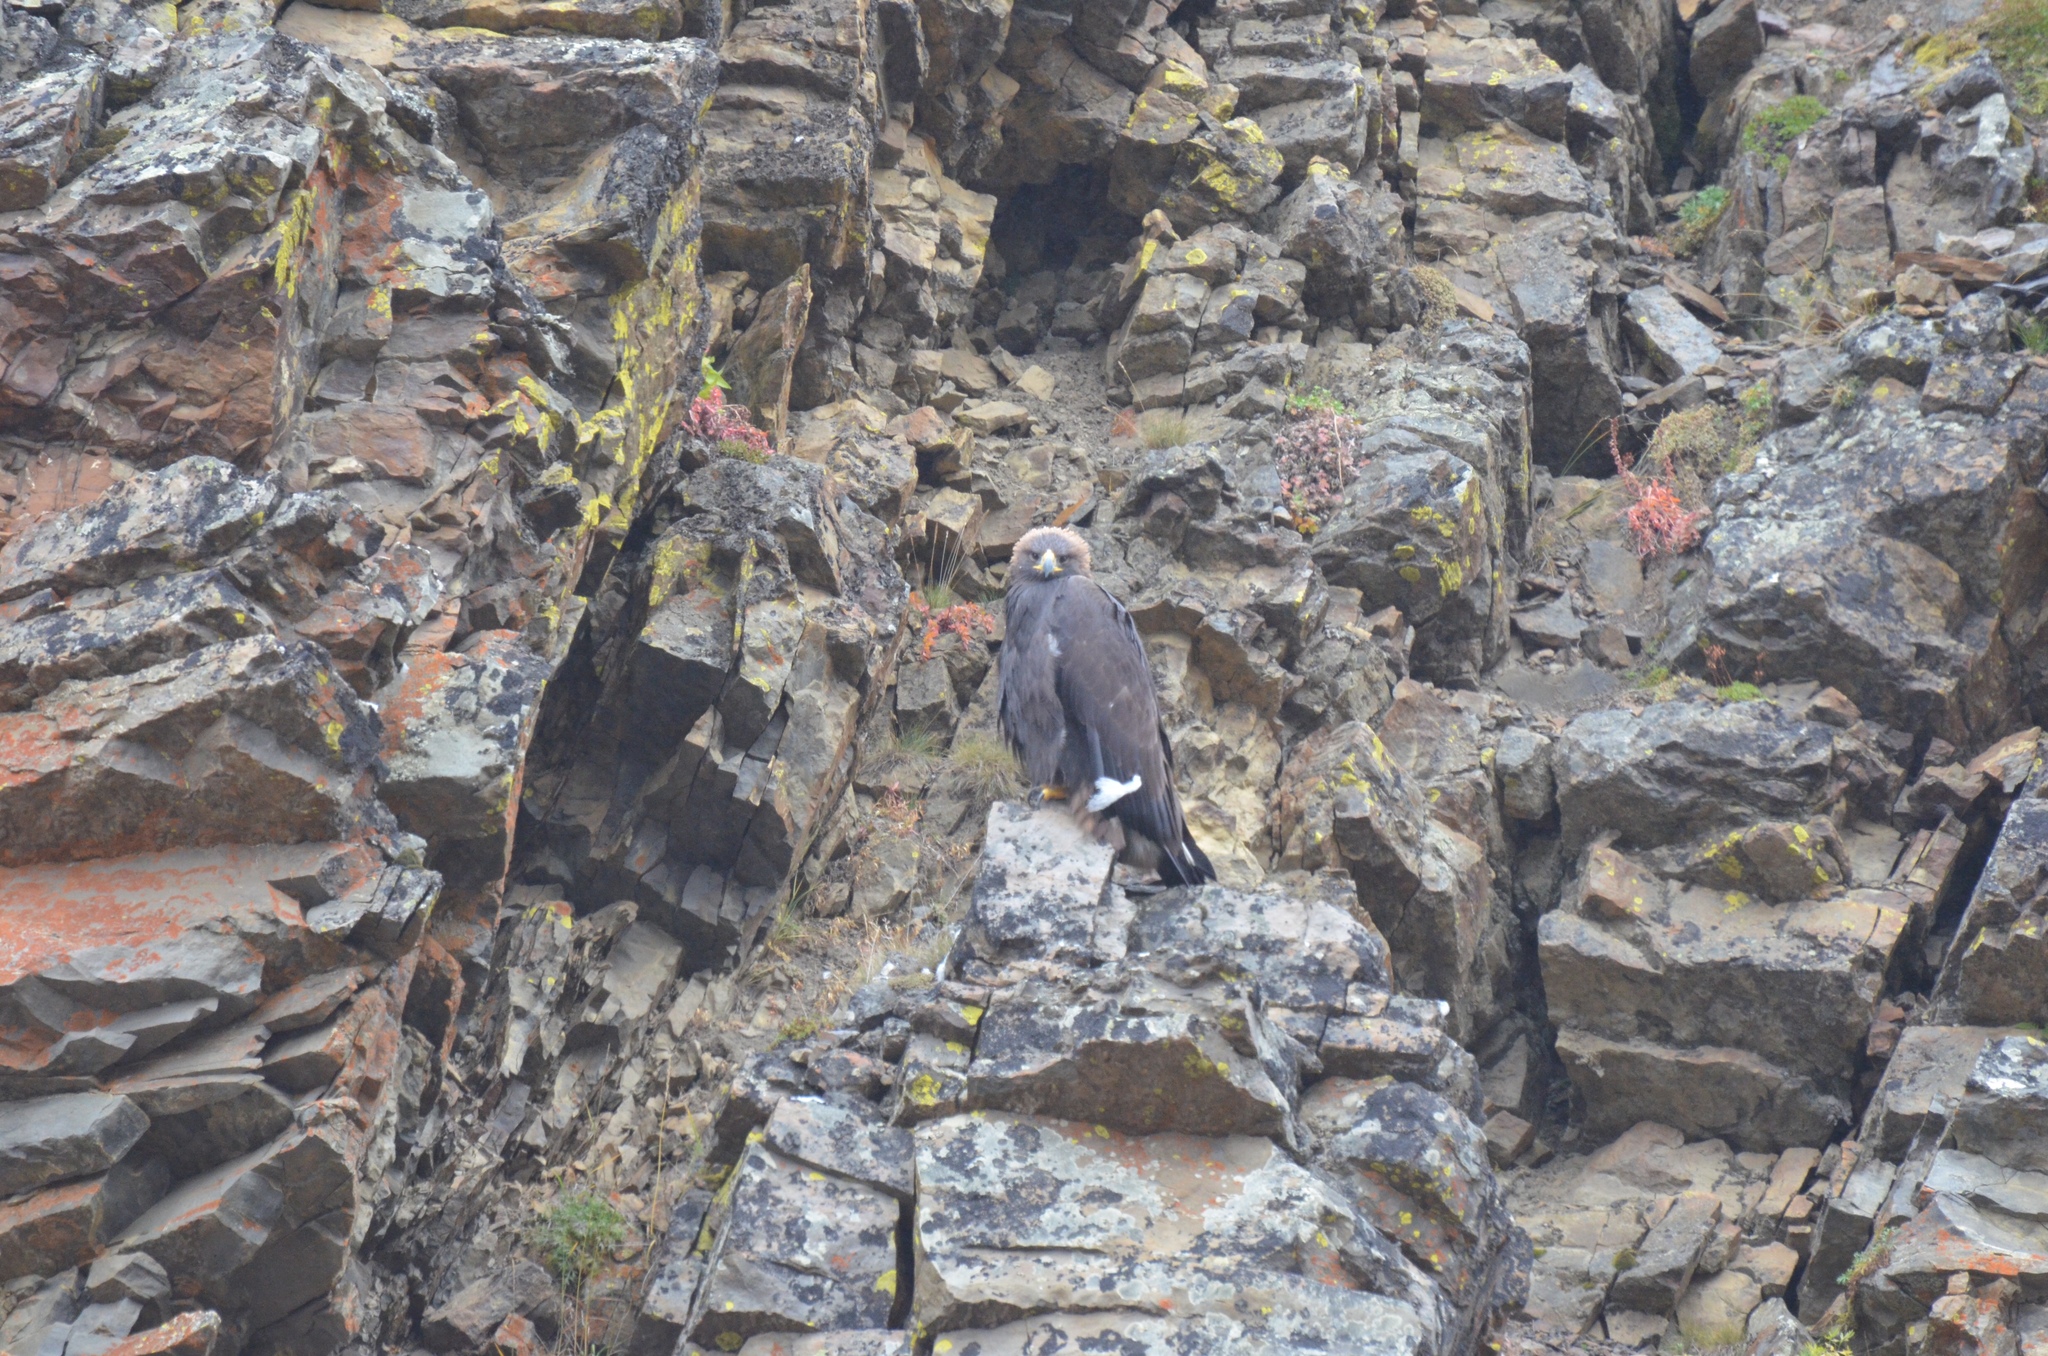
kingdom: Animalia
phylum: Chordata
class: Aves
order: Accipitriformes
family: Accipitridae
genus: Aquila
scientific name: Aquila chrysaetos
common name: Golden eagle
